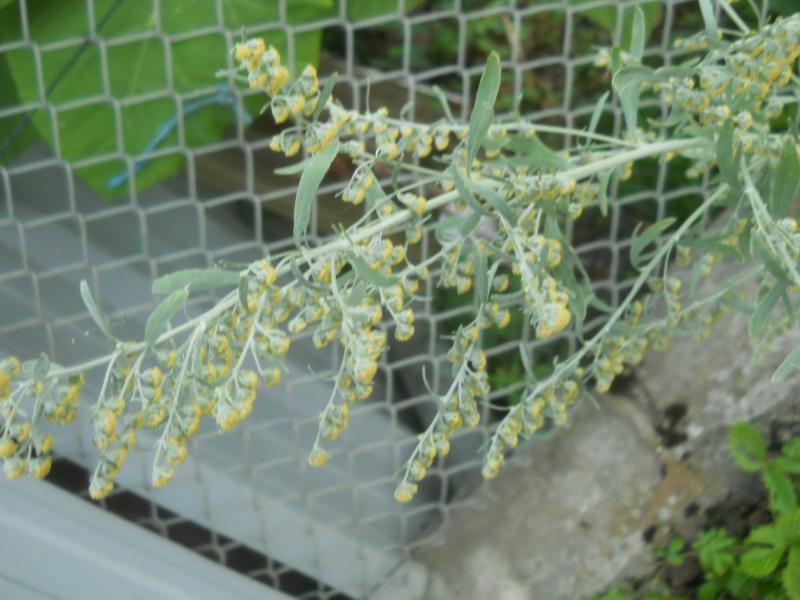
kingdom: Plantae
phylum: Tracheophyta
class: Magnoliopsida
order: Asterales
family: Asteraceae
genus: Artemisia
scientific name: Artemisia absinthium
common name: Wormwood
